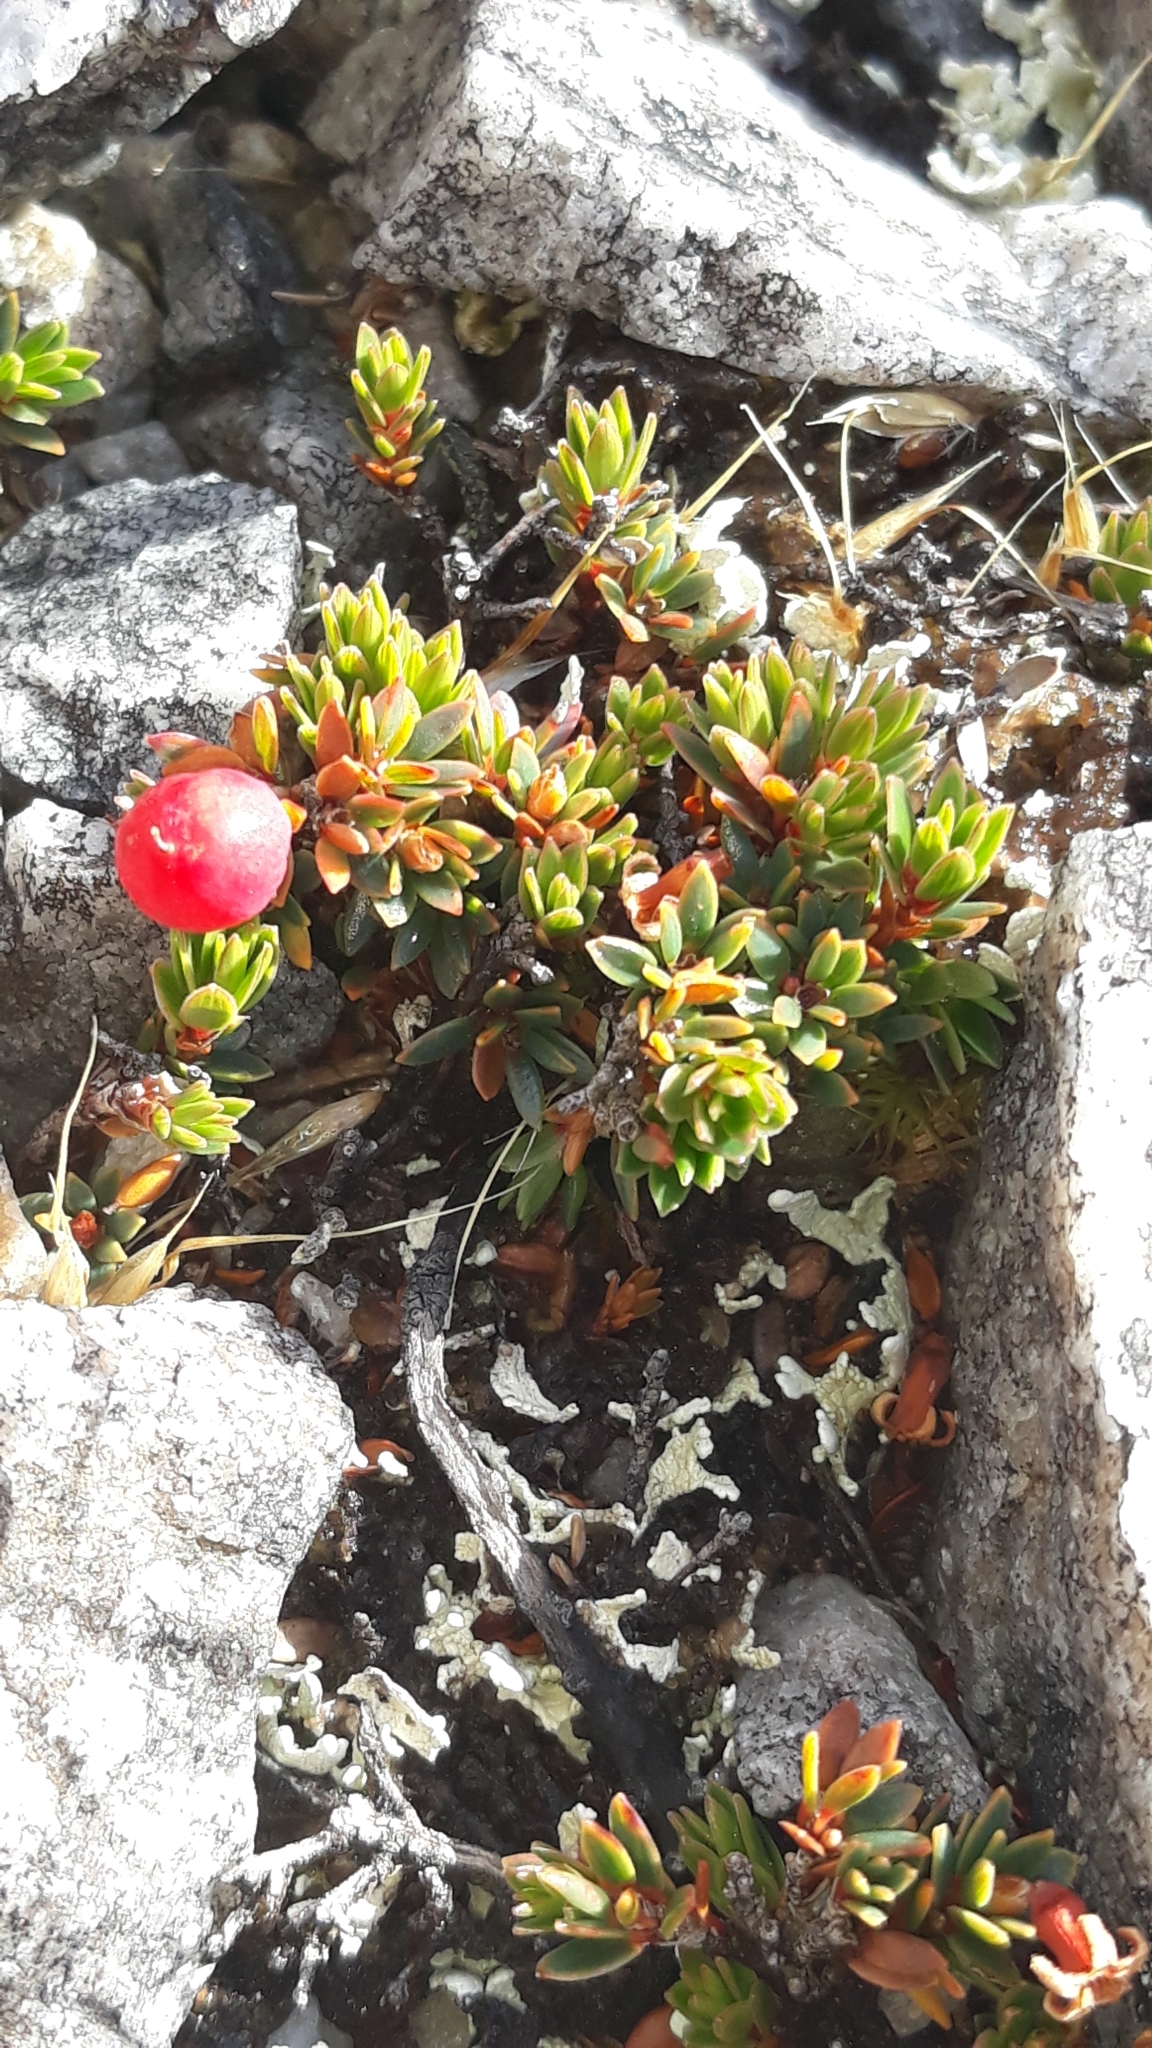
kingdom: Plantae
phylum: Tracheophyta
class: Magnoliopsida
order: Ericales
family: Ericaceae
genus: Pentachondra
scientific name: Pentachondra pumila
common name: Carpet-heath
